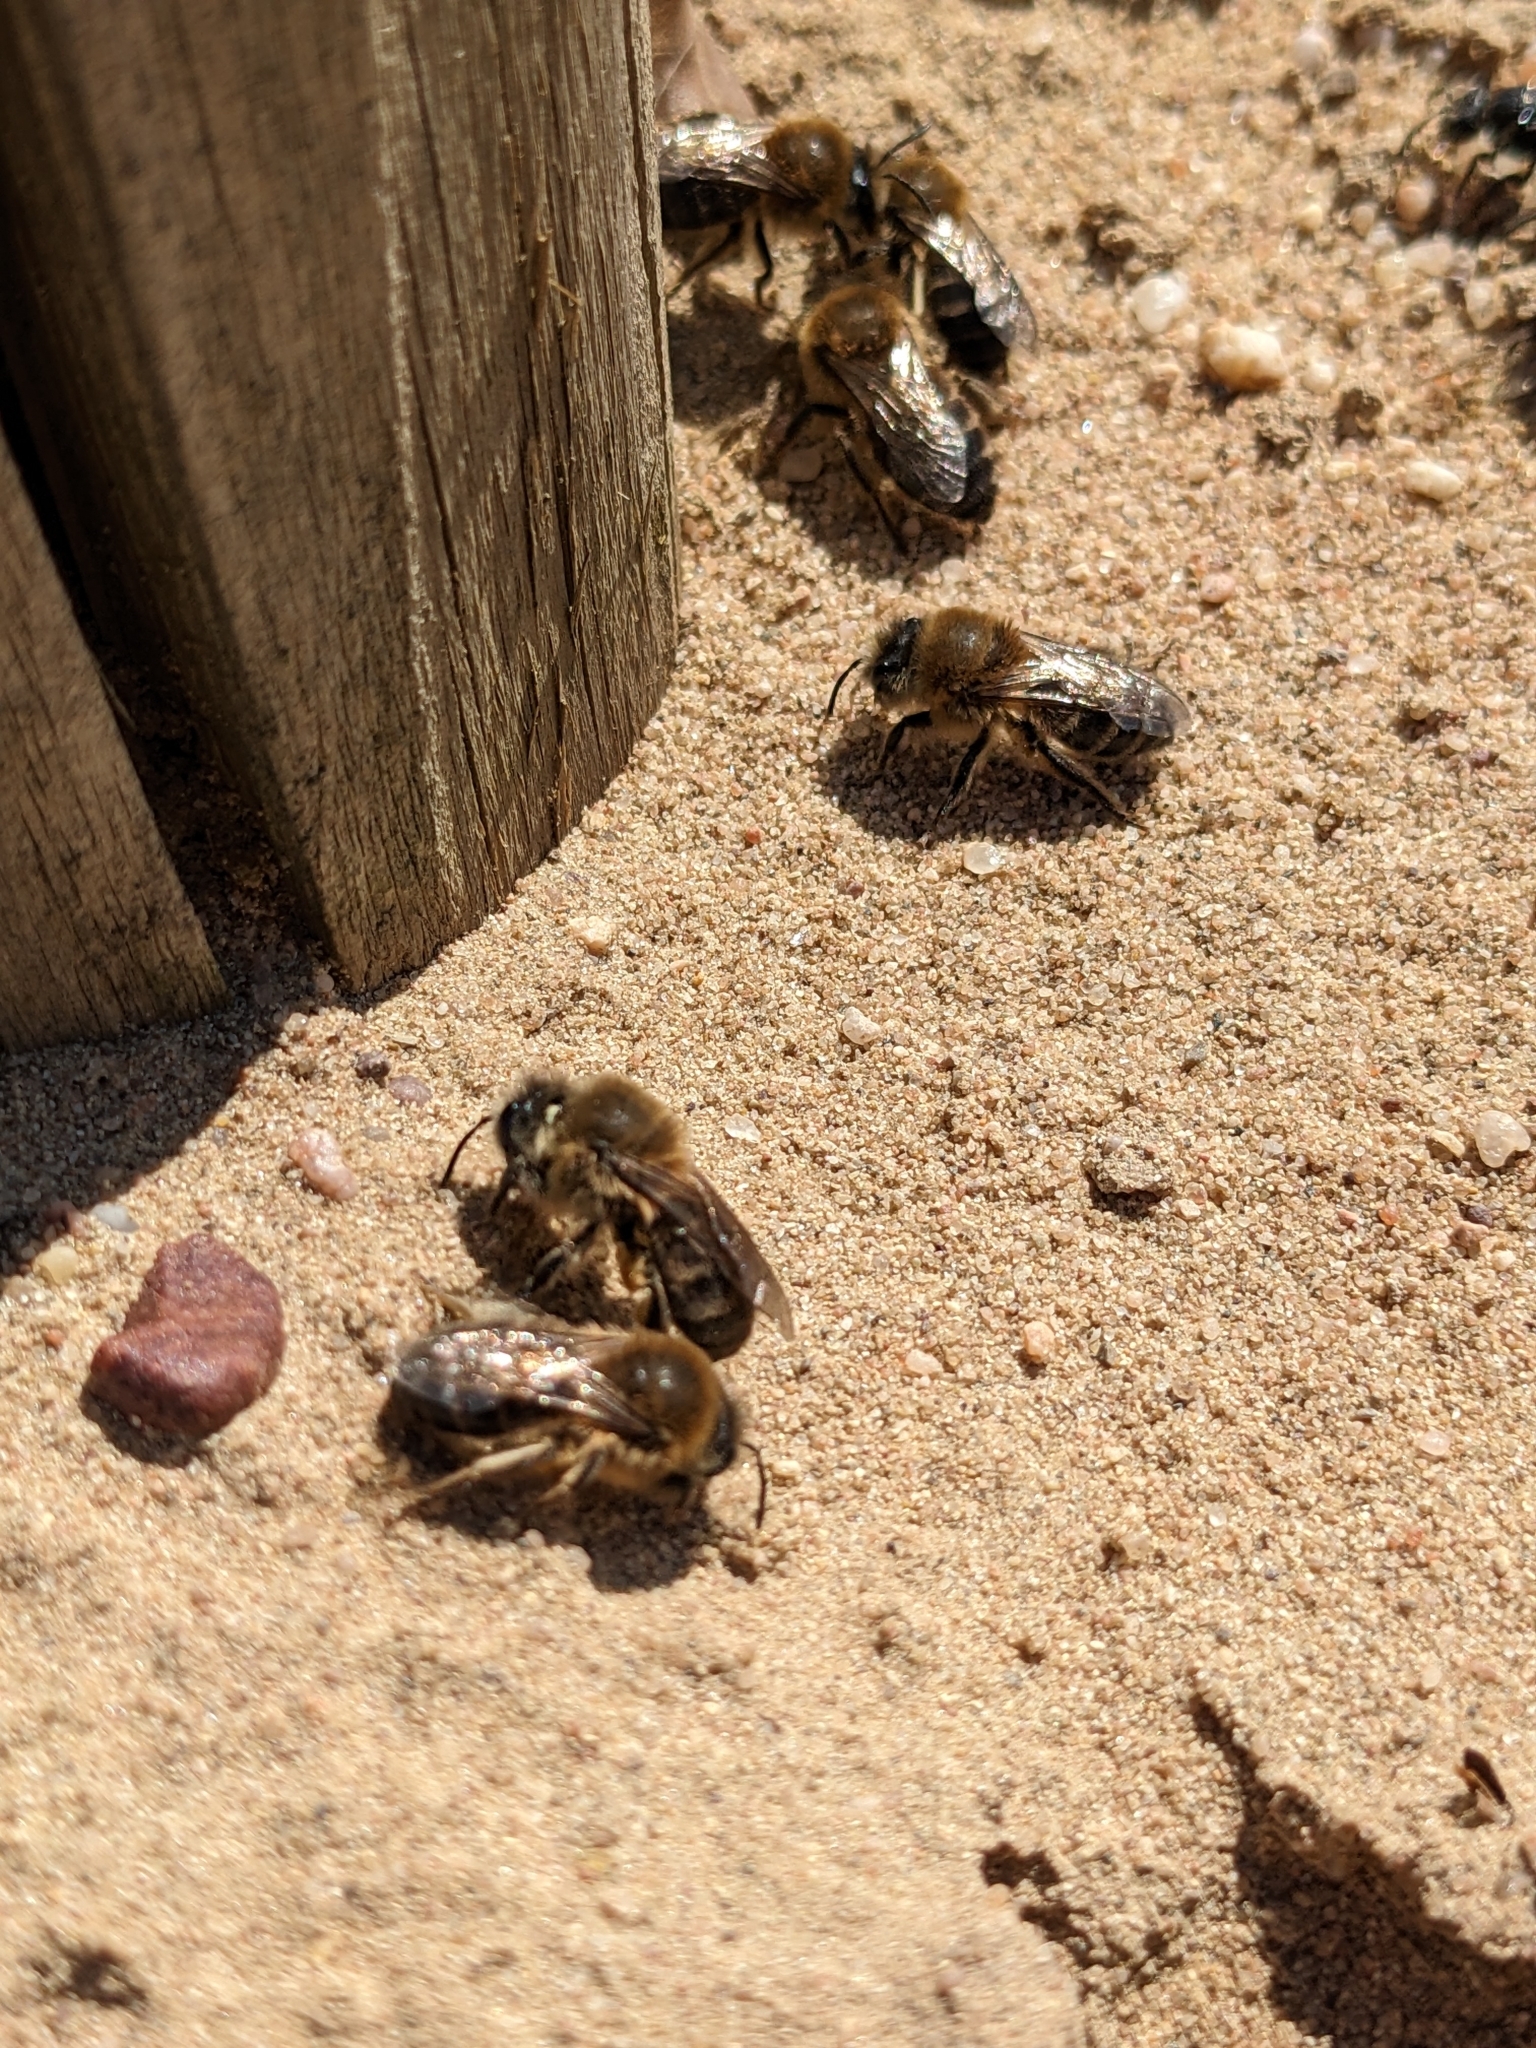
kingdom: Animalia
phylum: Arthropoda
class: Insecta
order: Hymenoptera
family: Colletidae
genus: Colletes
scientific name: Colletes cunicularius
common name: Early colletes
